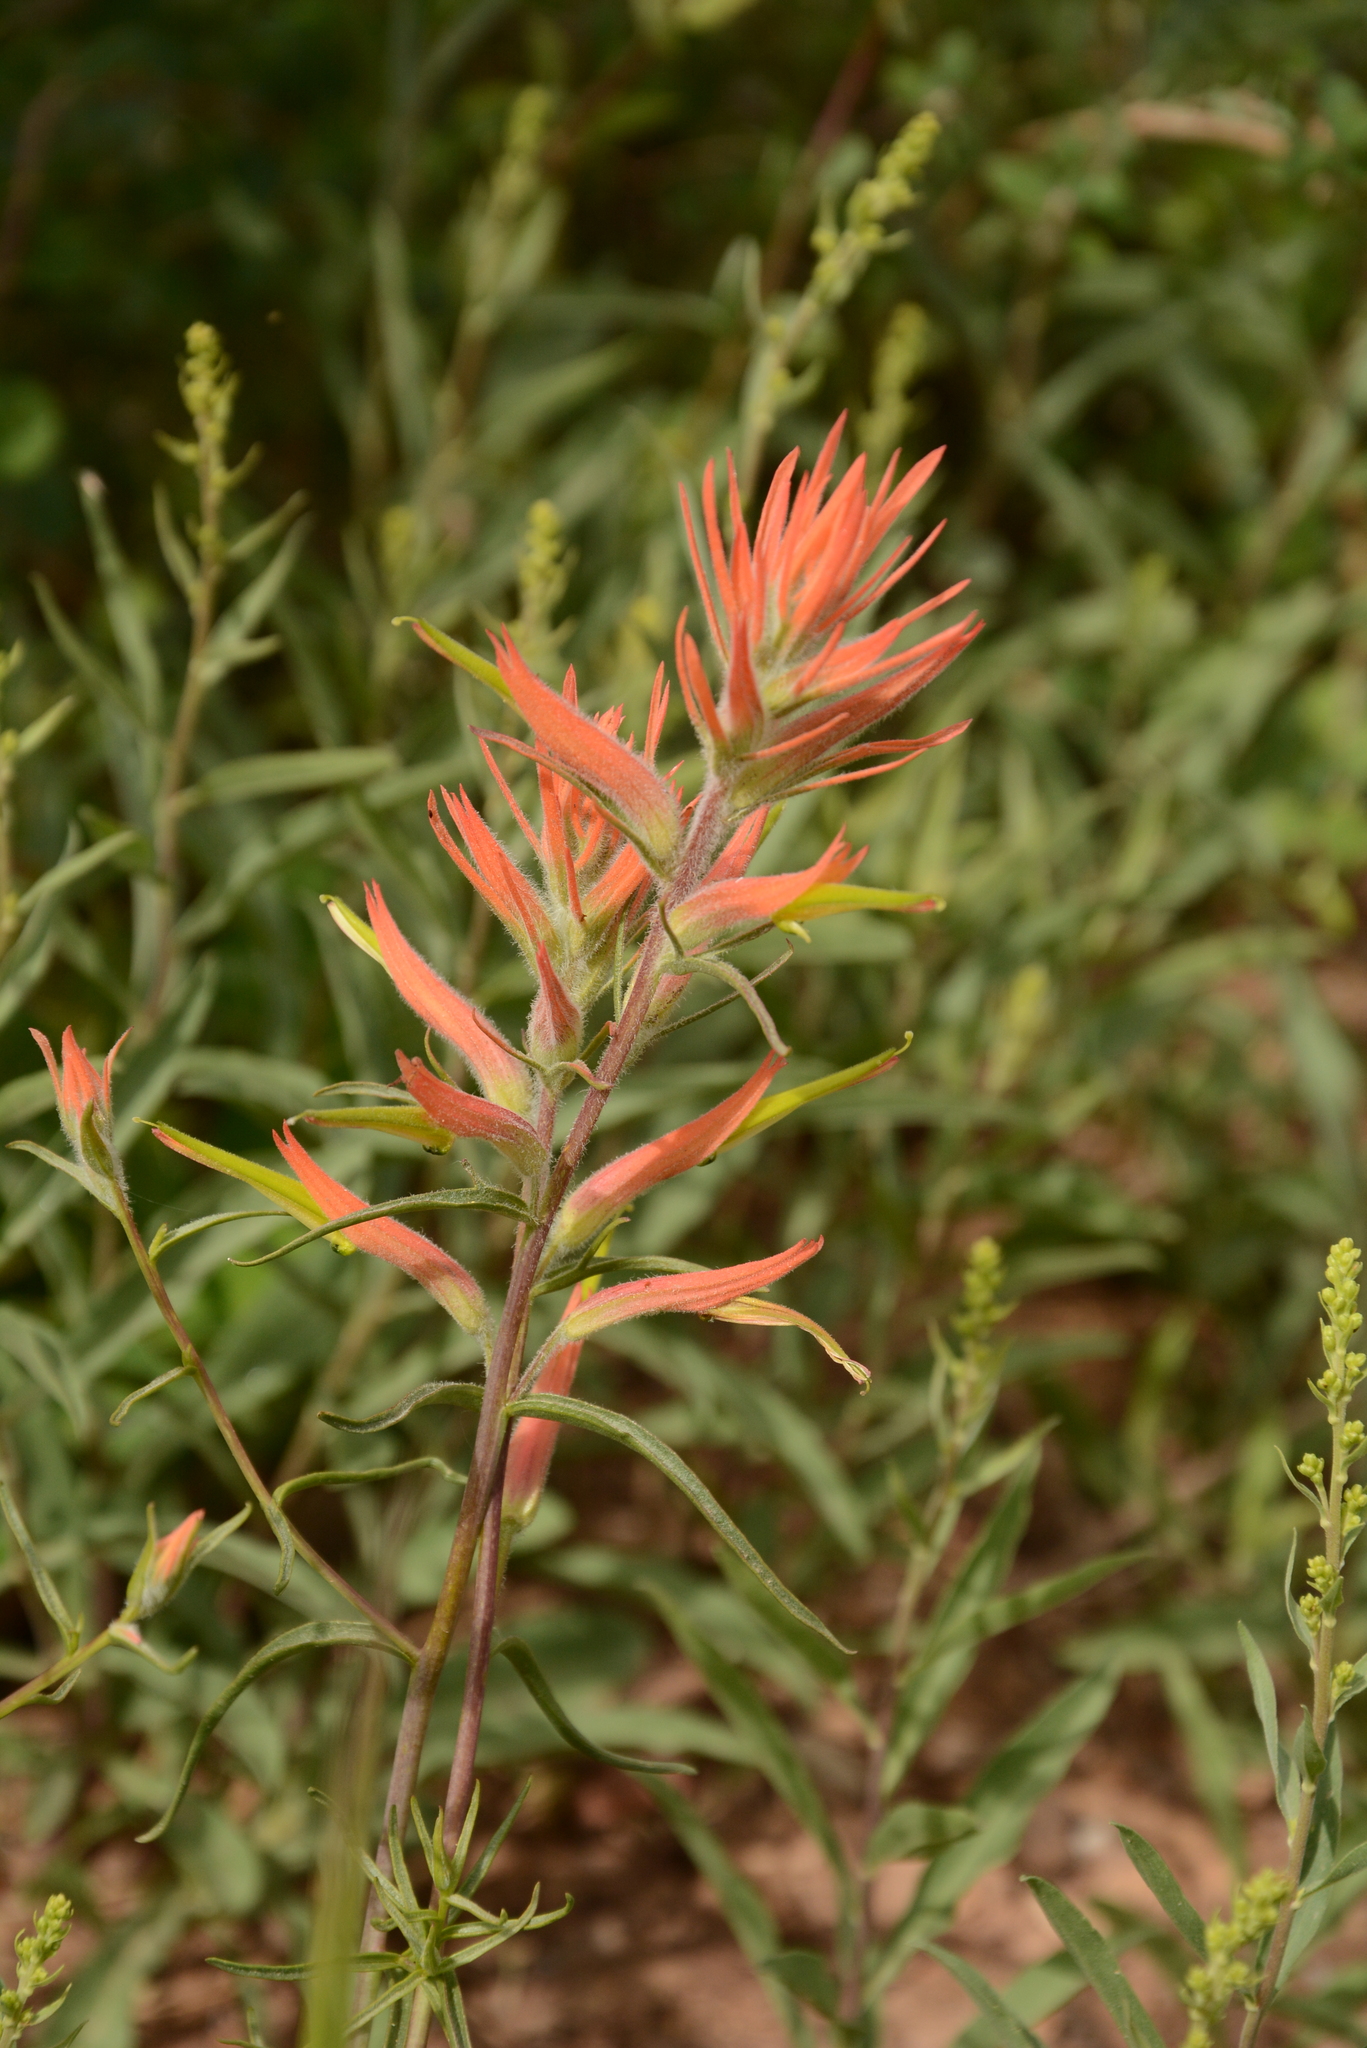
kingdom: Plantae
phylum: Tracheophyta
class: Magnoliopsida
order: Lamiales
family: Orobanchaceae
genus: Castilleja
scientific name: Castilleja linariifolia
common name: Wyoming paintbrush
